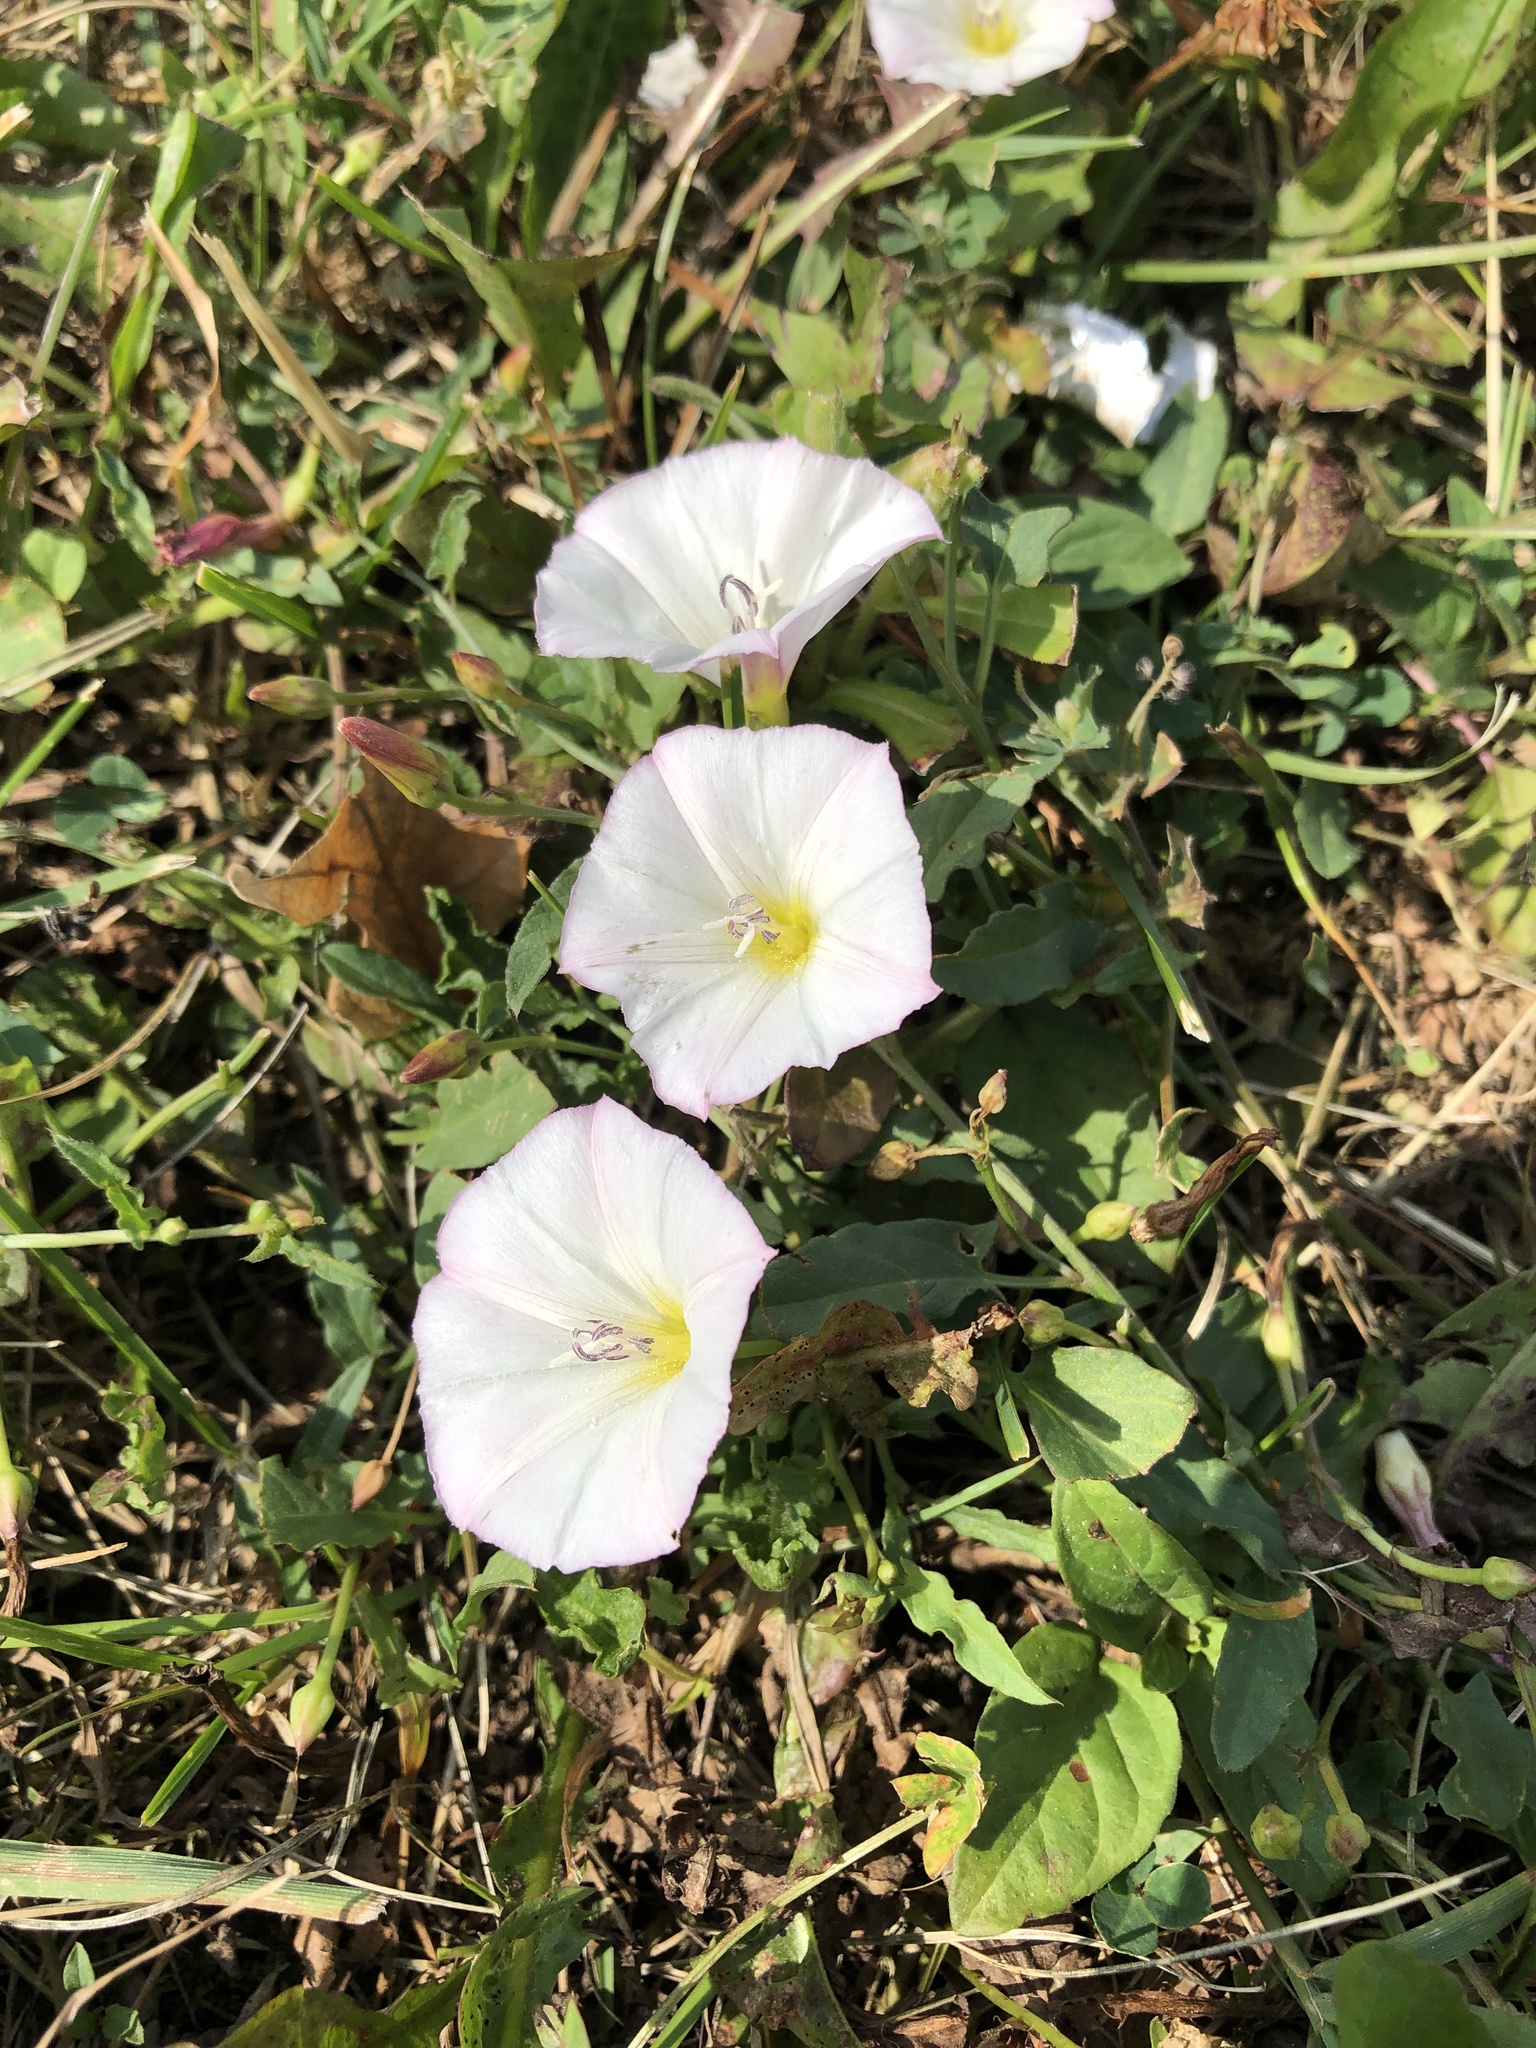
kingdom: Plantae
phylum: Tracheophyta
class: Magnoliopsida
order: Solanales
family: Convolvulaceae
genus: Convolvulus
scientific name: Convolvulus arvensis
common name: Field bindweed
